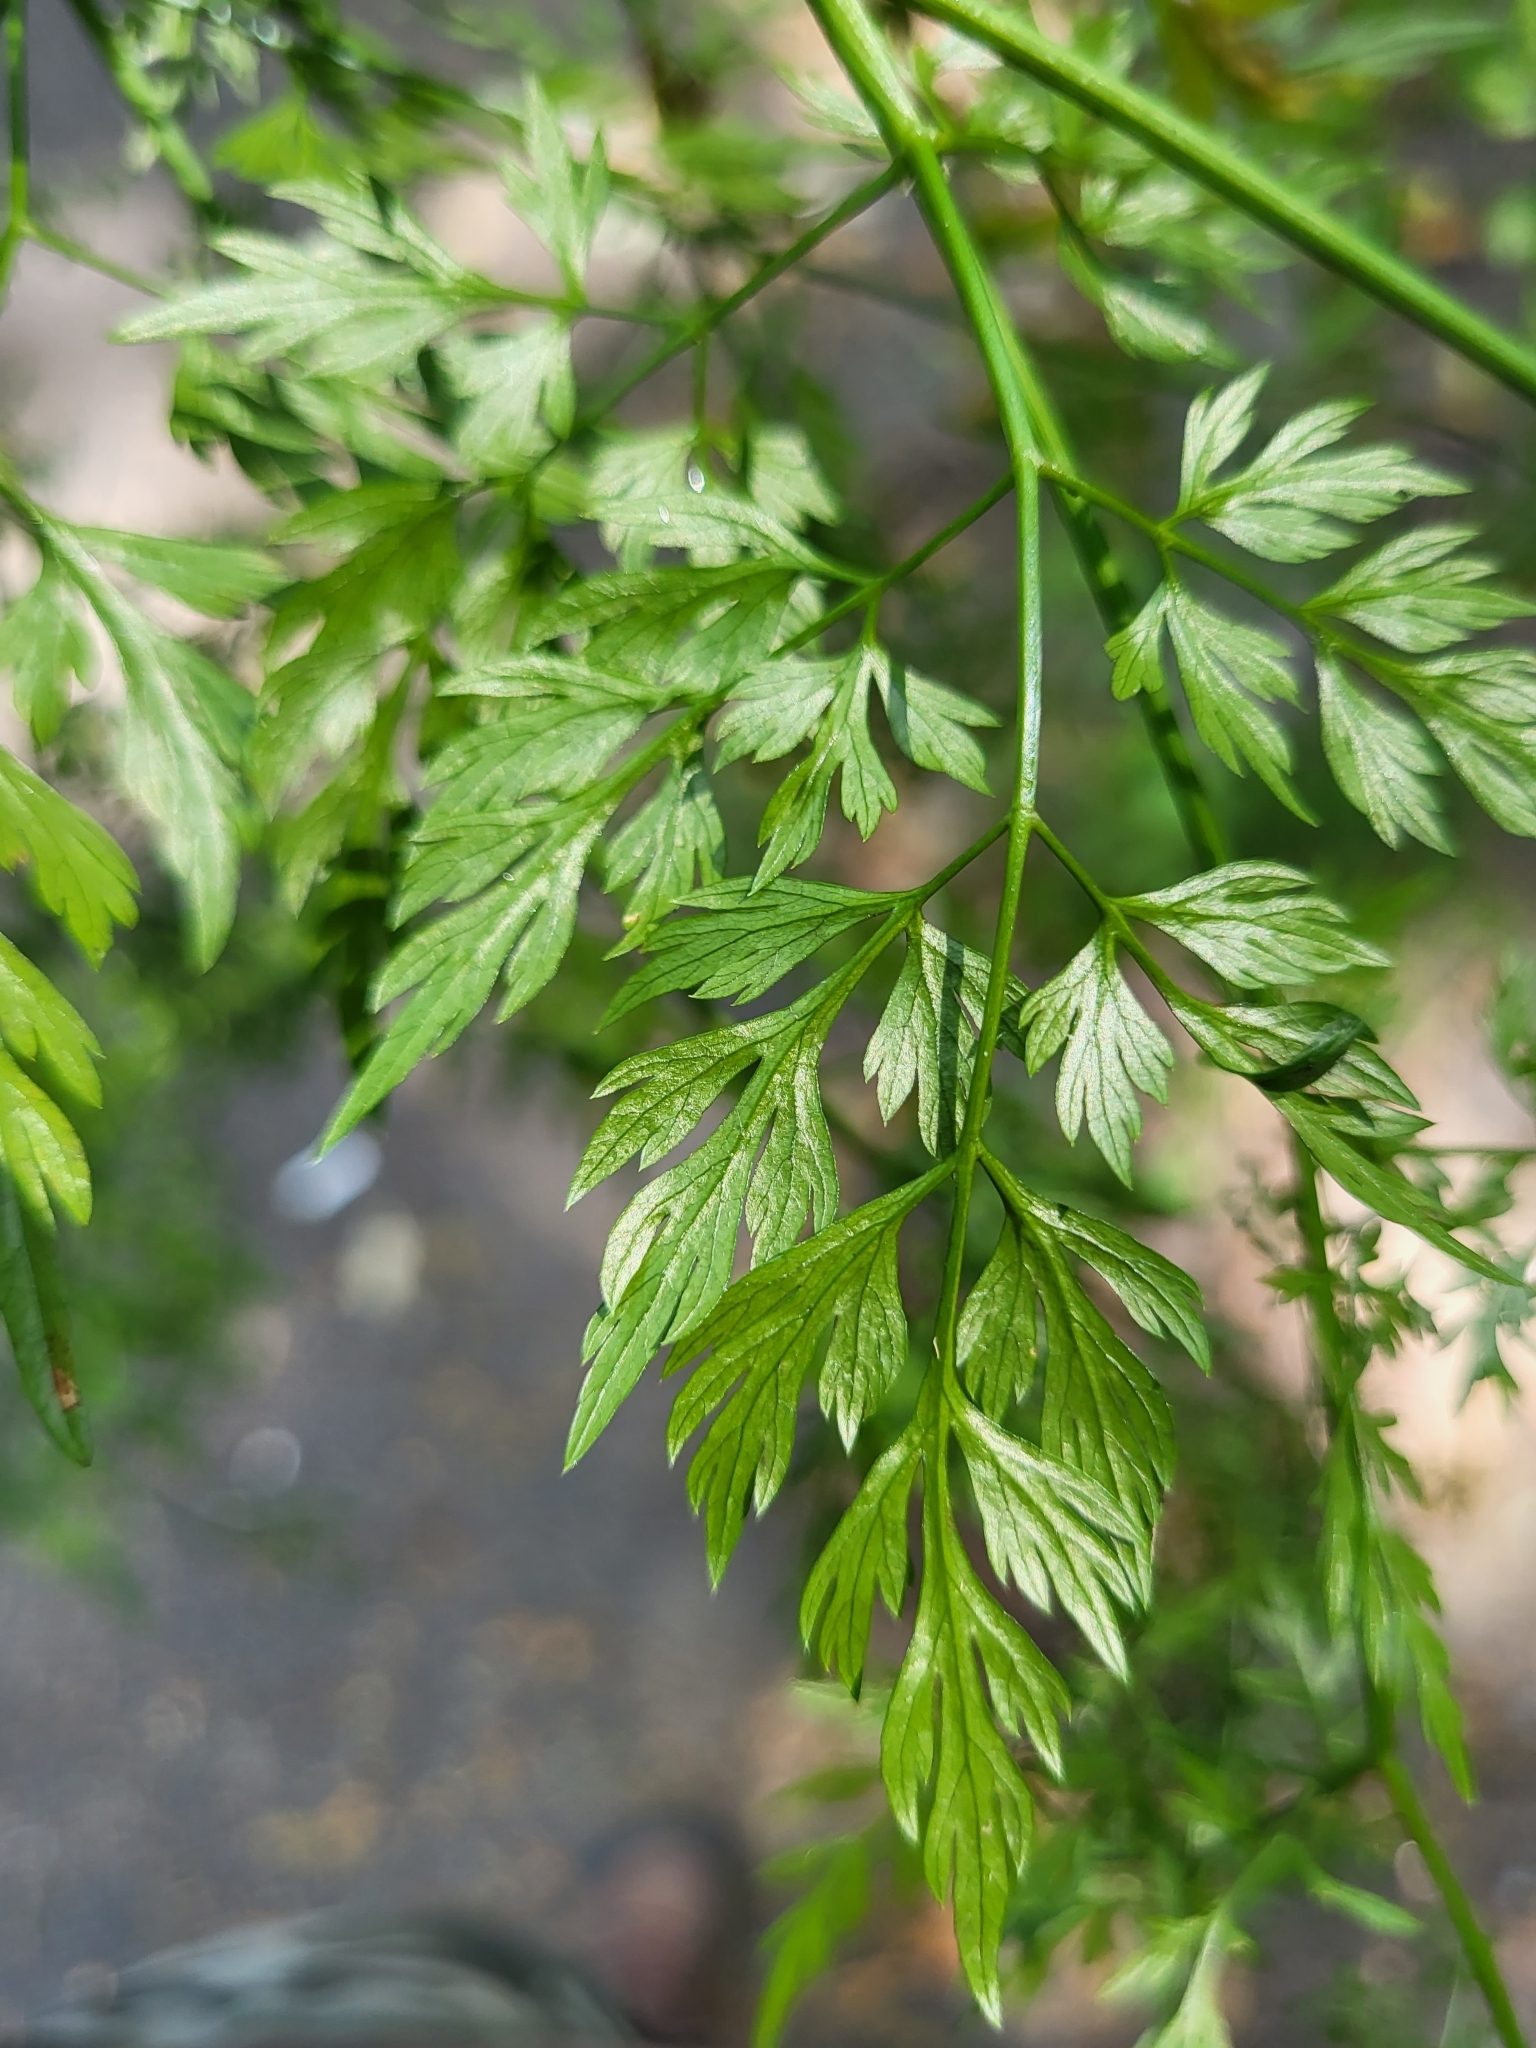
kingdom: Plantae
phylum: Tracheophyta
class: Magnoliopsida
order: Apiales
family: Apiaceae
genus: Aethusa
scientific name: Aethusa cynapium
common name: Fool's parsley
